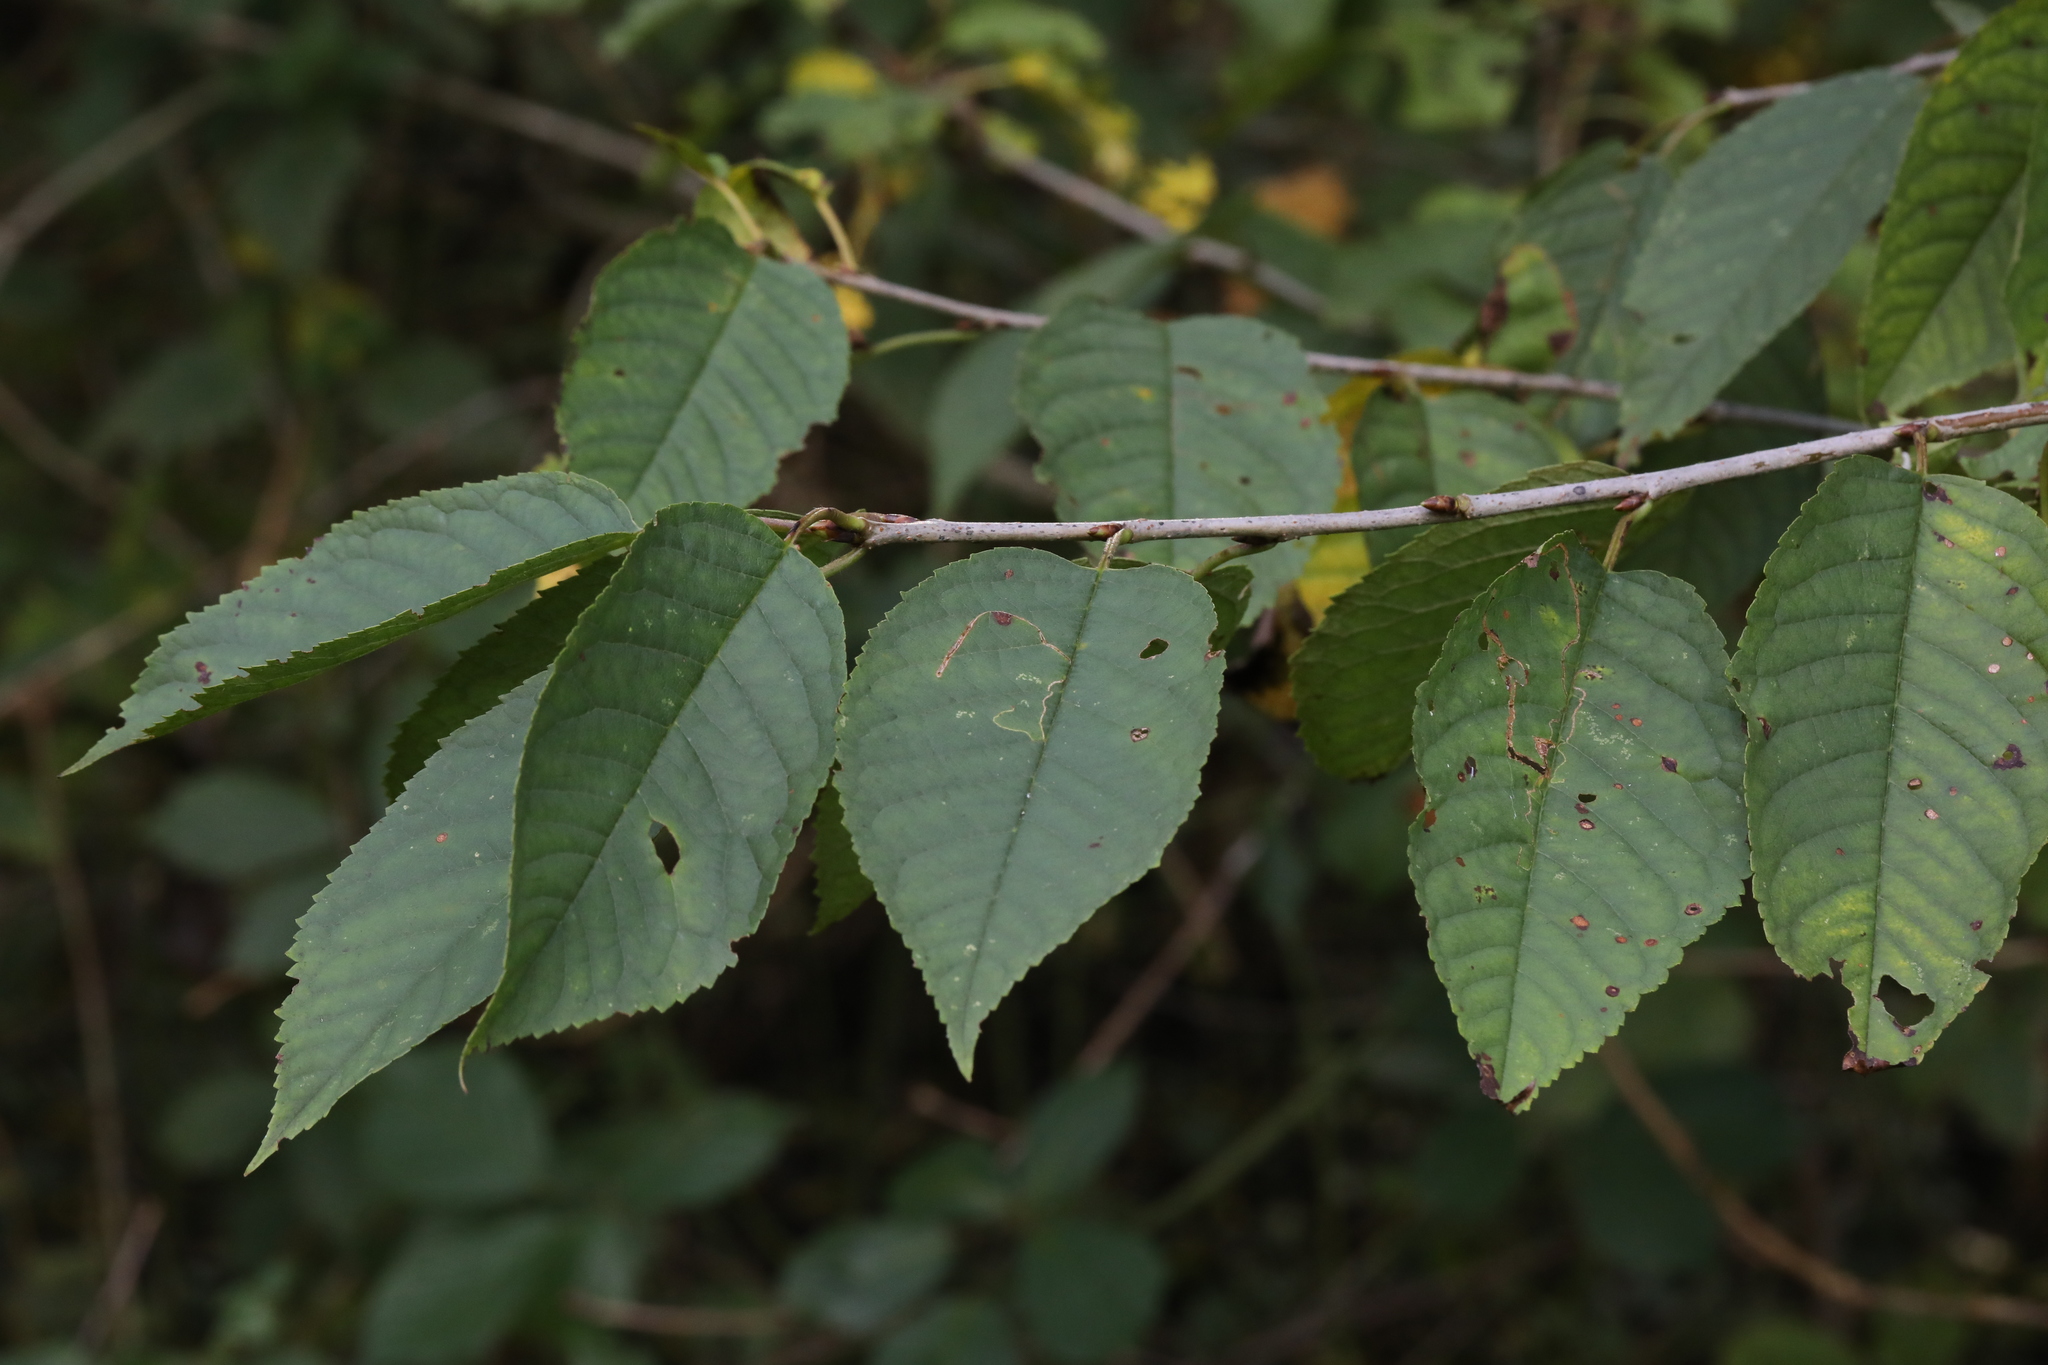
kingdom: Plantae
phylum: Tracheophyta
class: Magnoliopsida
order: Rosales
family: Rosaceae
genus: Prunus
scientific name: Prunus avium
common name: Sweet cherry
